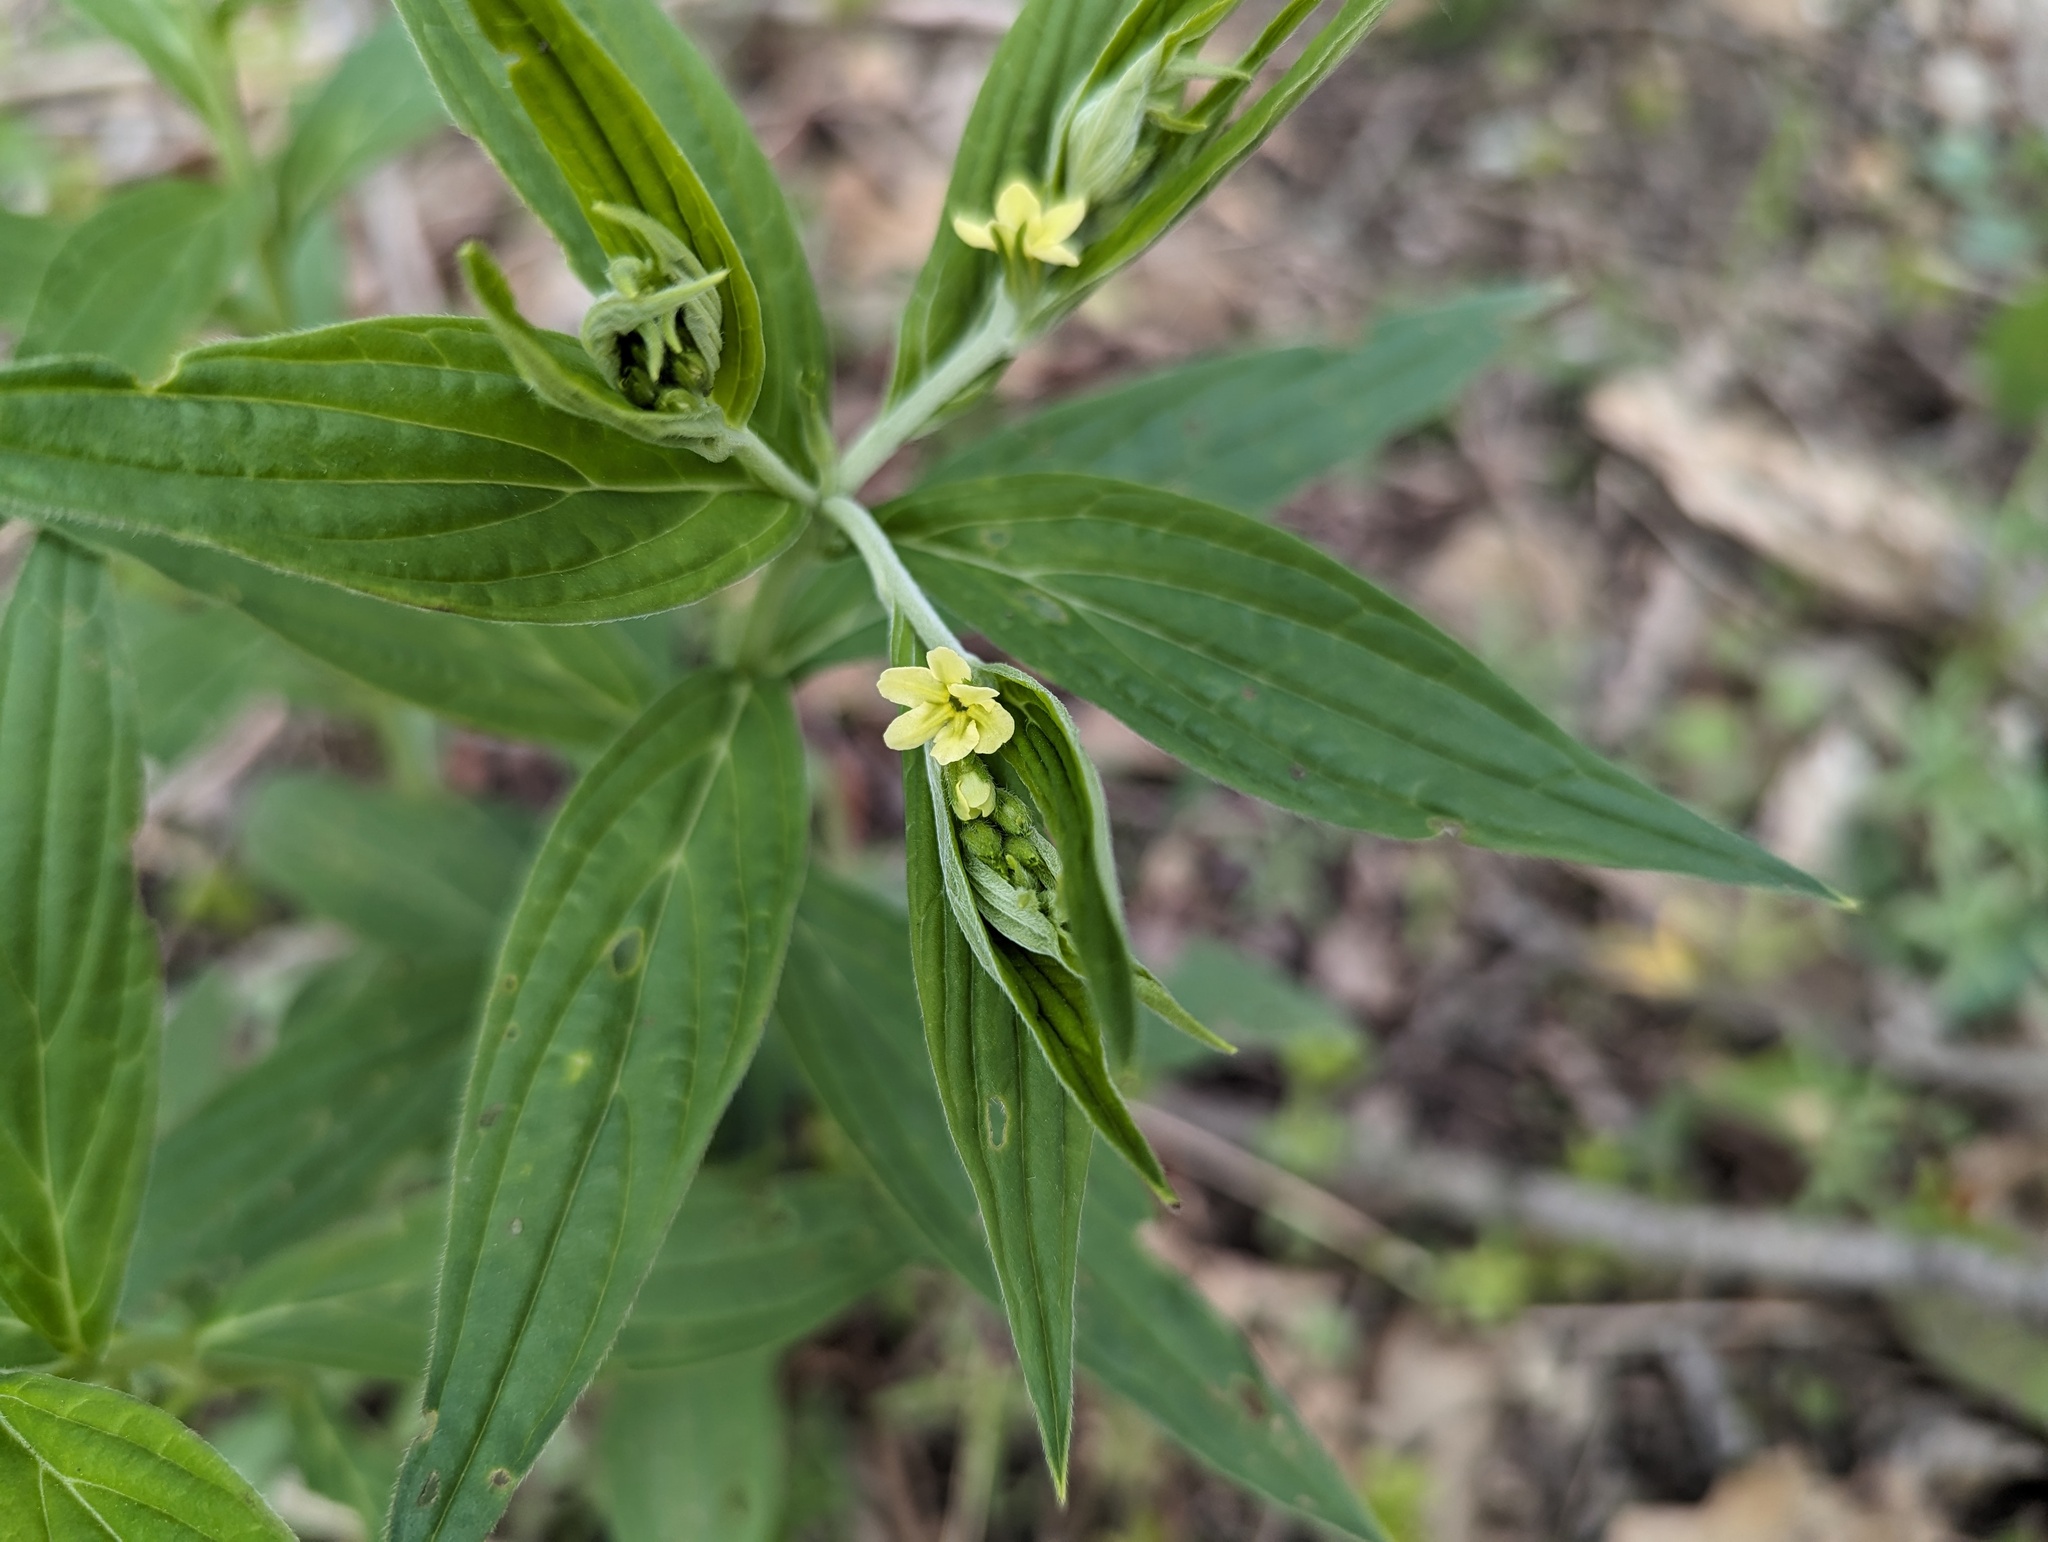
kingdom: Plantae
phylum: Tracheophyta
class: Magnoliopsida
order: Boraginales
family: Boraginaceae
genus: Lithospermum
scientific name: Lithospermum latifolium
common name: American gromwell
